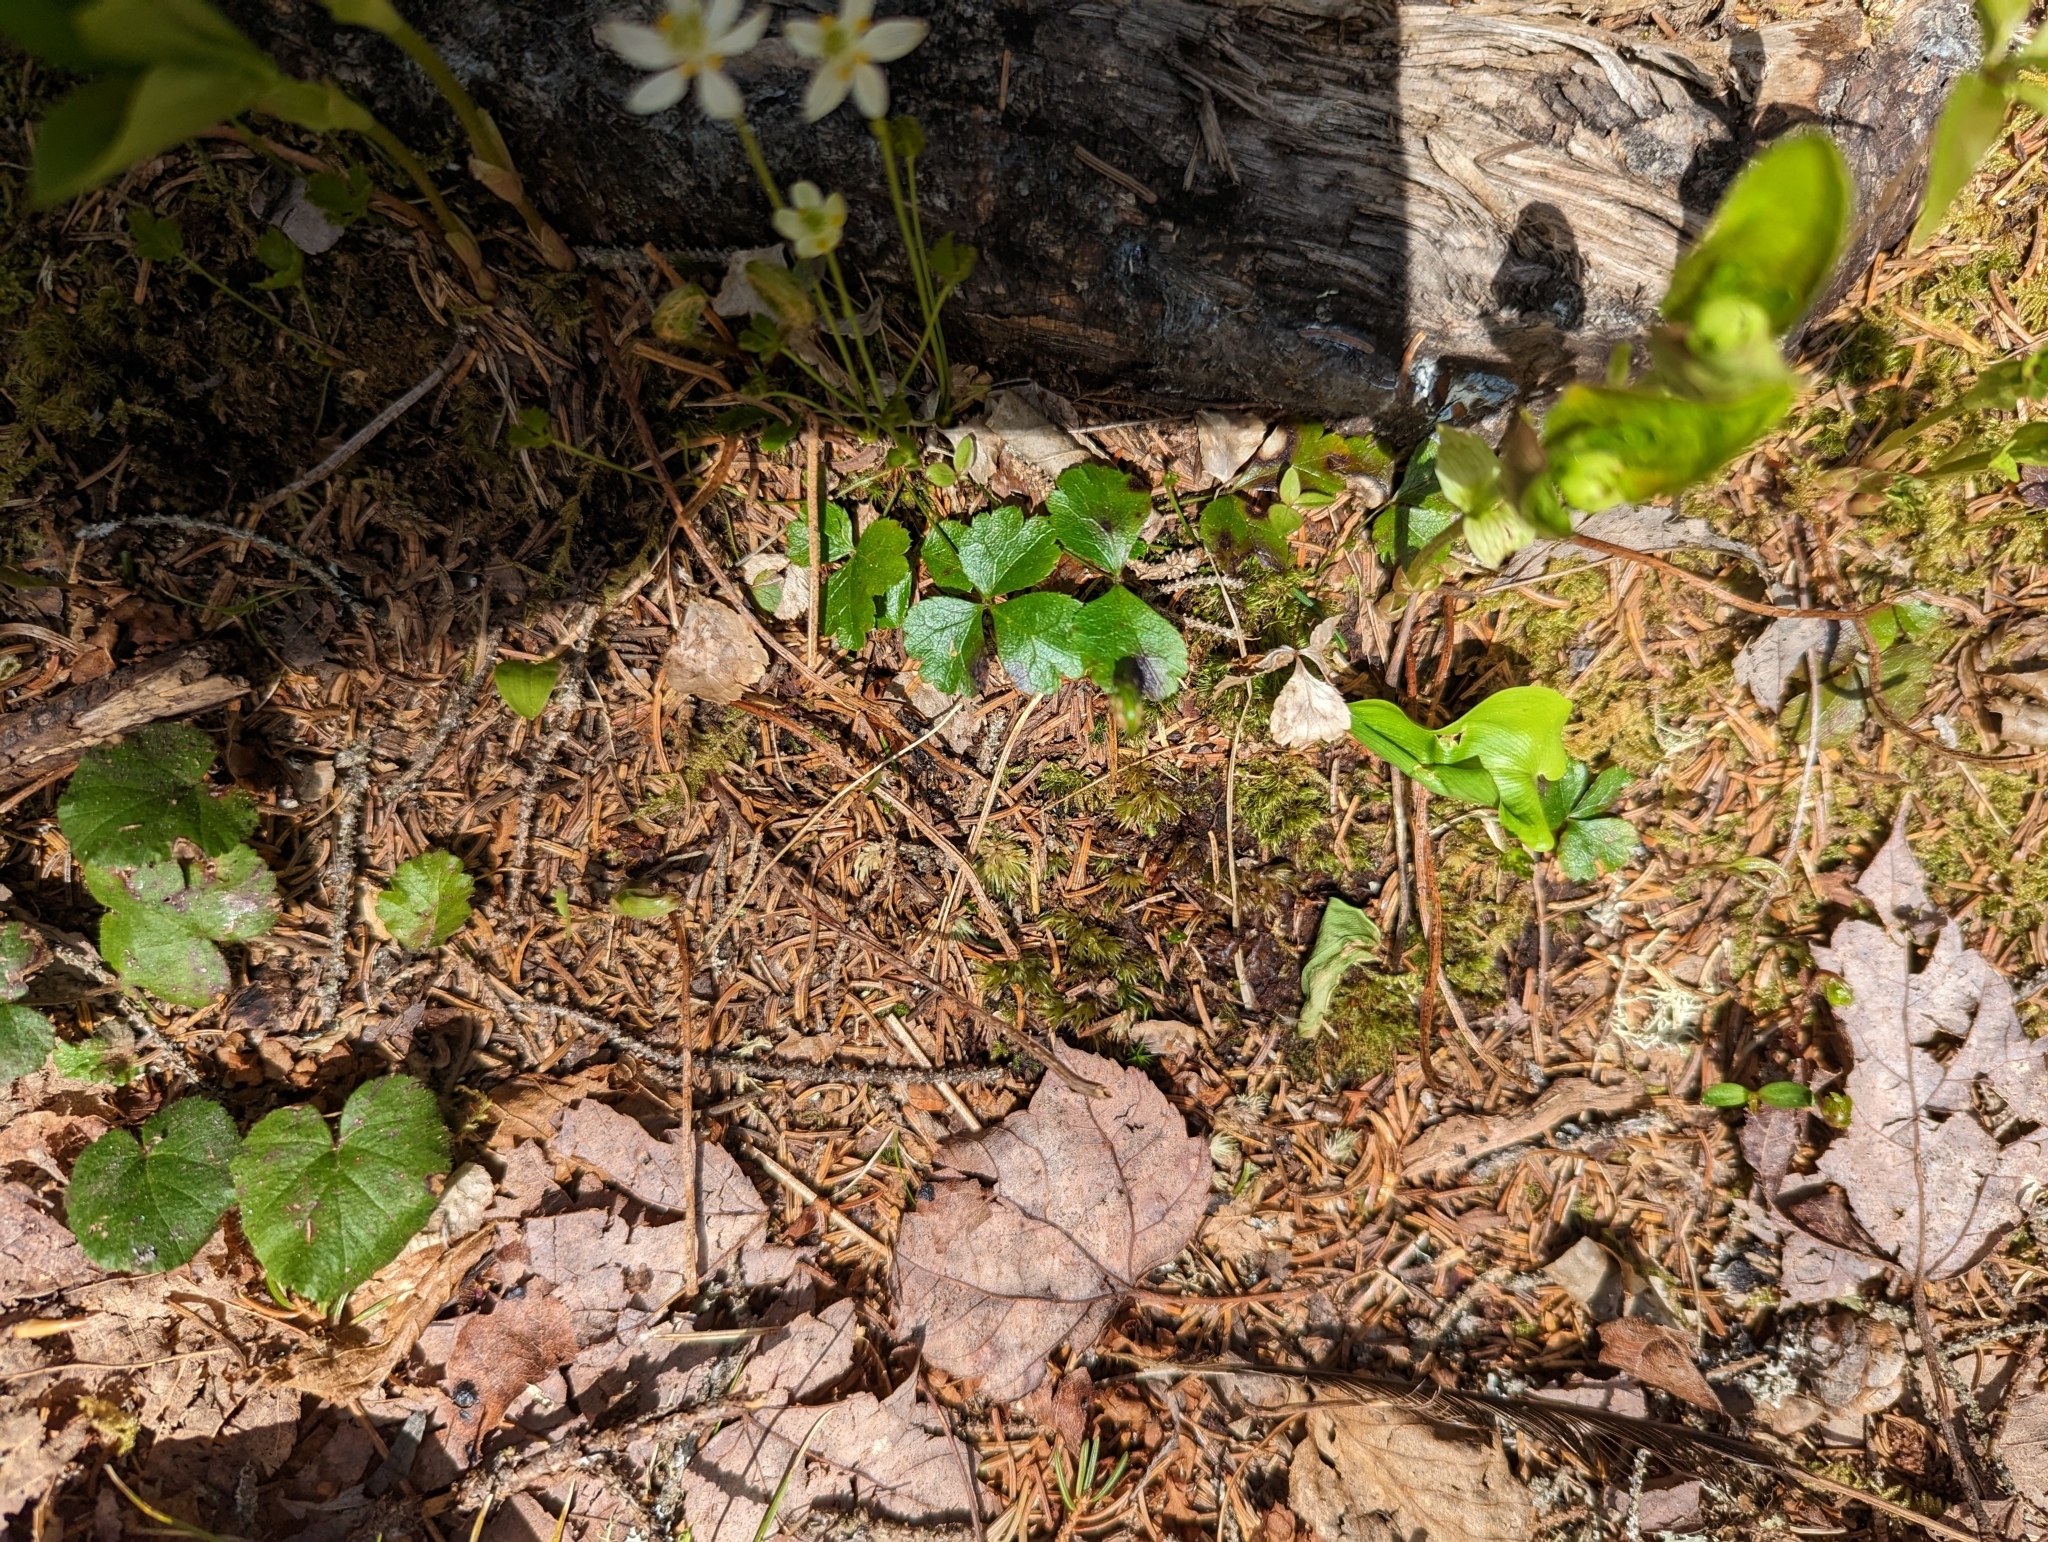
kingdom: Plantae
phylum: Tracheophyta
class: Magnoliopsida
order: Ranunculales
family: Ranunculaceae
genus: Coptis
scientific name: Coptis trifolia
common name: Canker-root
